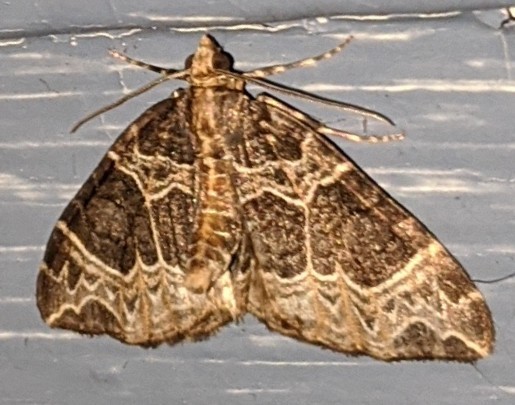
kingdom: Animalia
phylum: Arthropoda
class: Insecta
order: Lepidoptera
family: Geometridae
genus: Ecliptopera
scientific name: Ecliptopera silaceata
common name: Small phoenix
